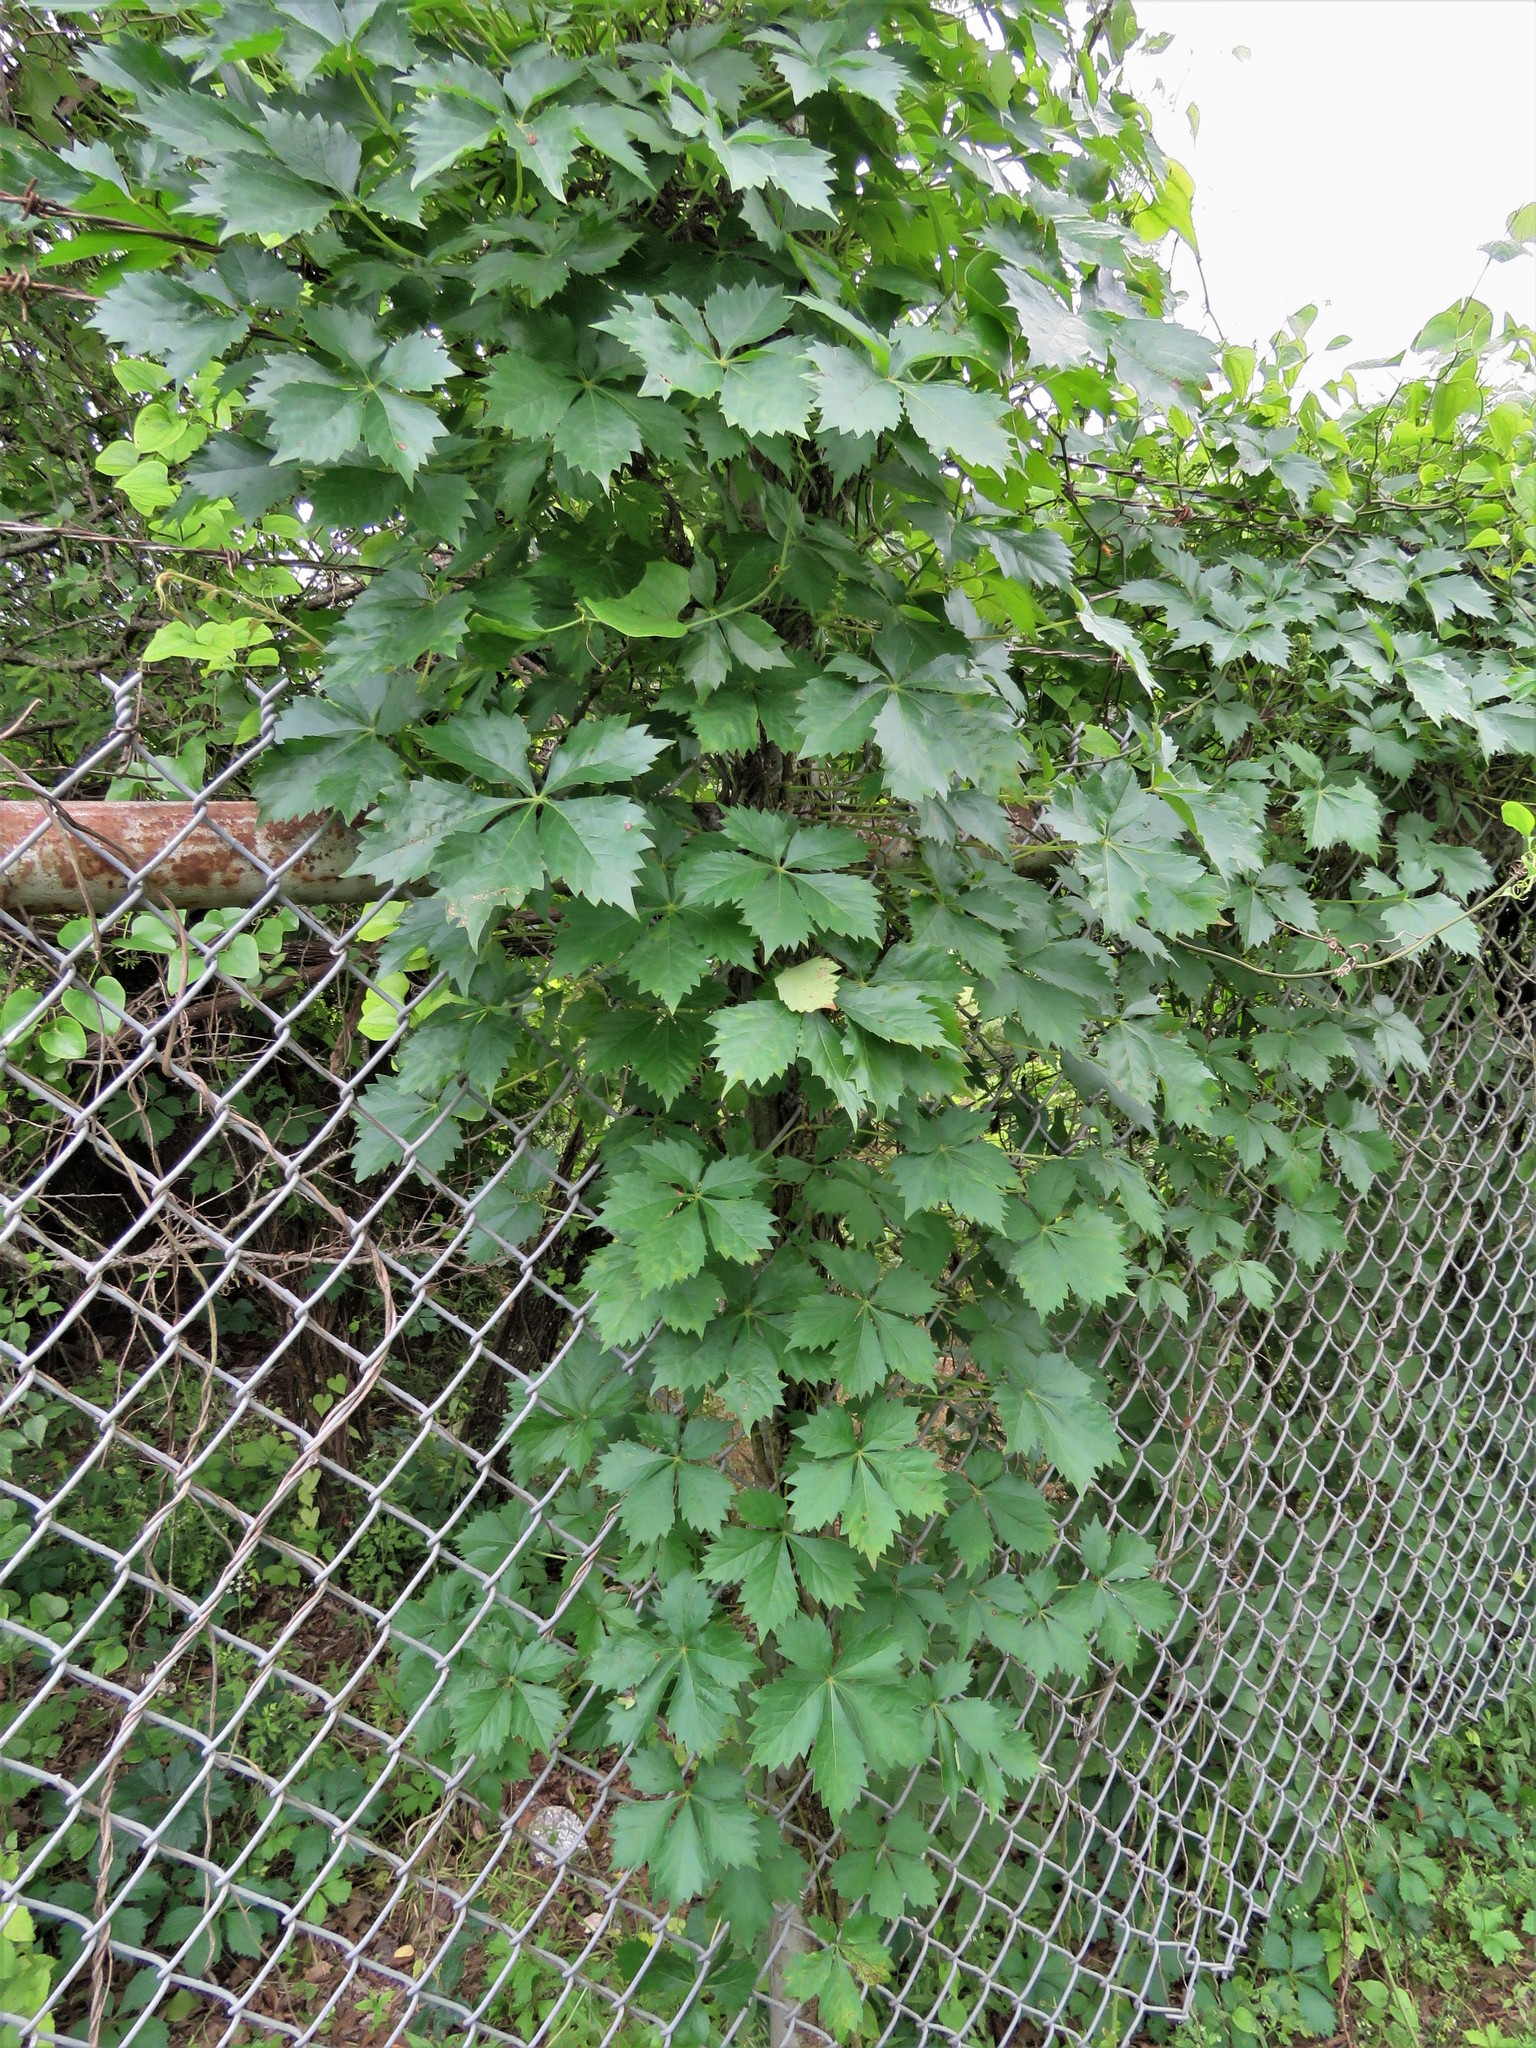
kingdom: Plantae
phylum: Tracheophyta
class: Magnoliopsida
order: Vitales
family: Vitaceae
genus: Parthenocissus
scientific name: Parthenocissus quinquefolia
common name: Virginia-creeper
